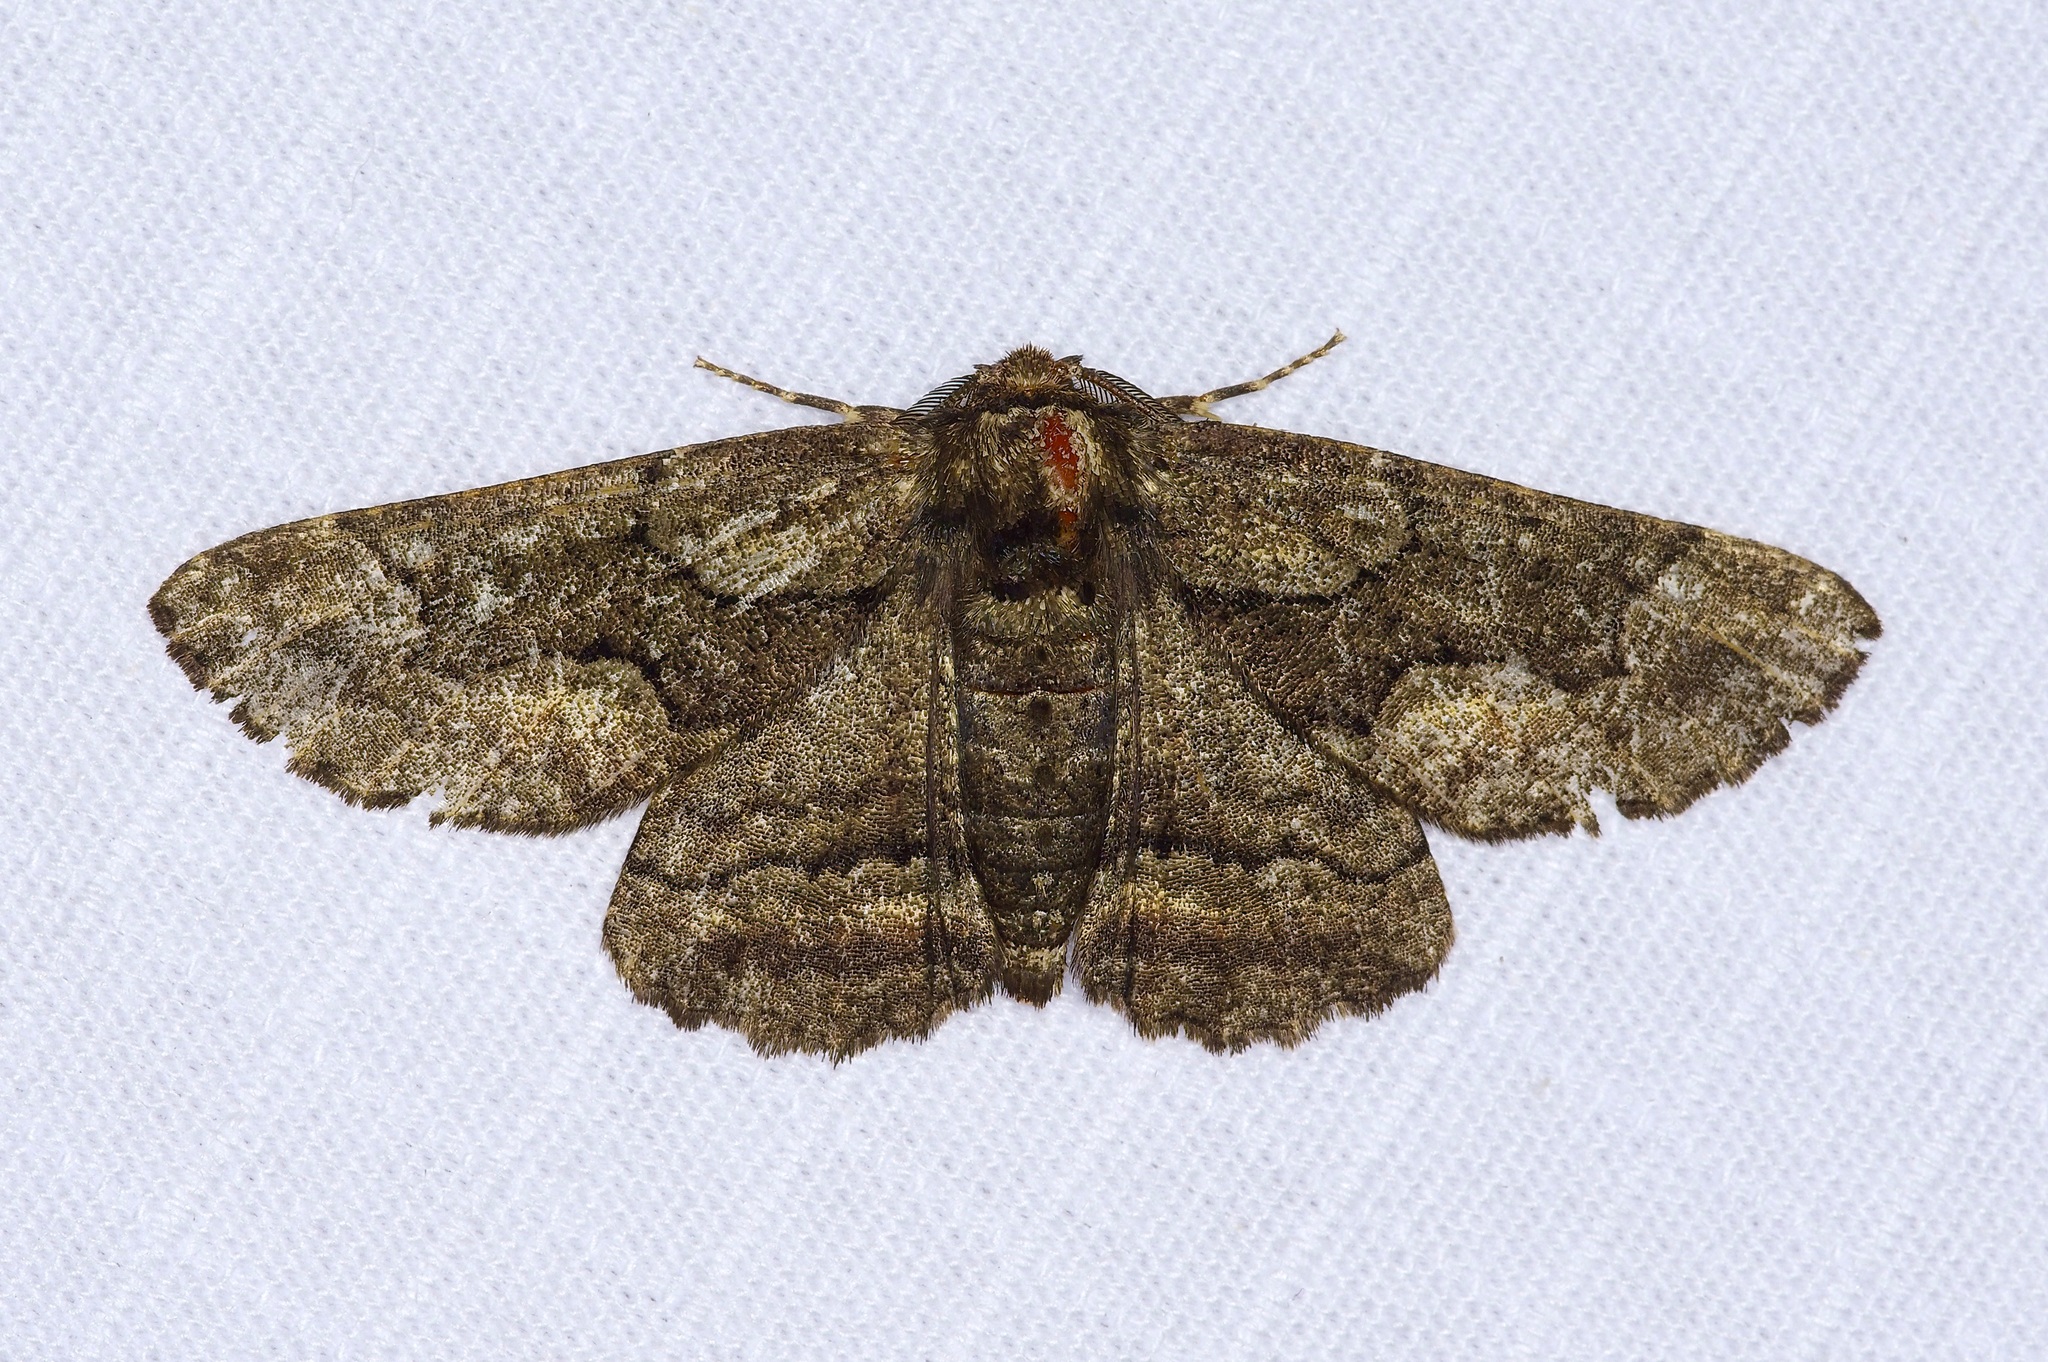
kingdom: Animalia
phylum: Arthropoda
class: Insecta
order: Lepidoptera
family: Geometridae
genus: Phaeoura
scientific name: Phaeoura quernaria
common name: Oak beauty
